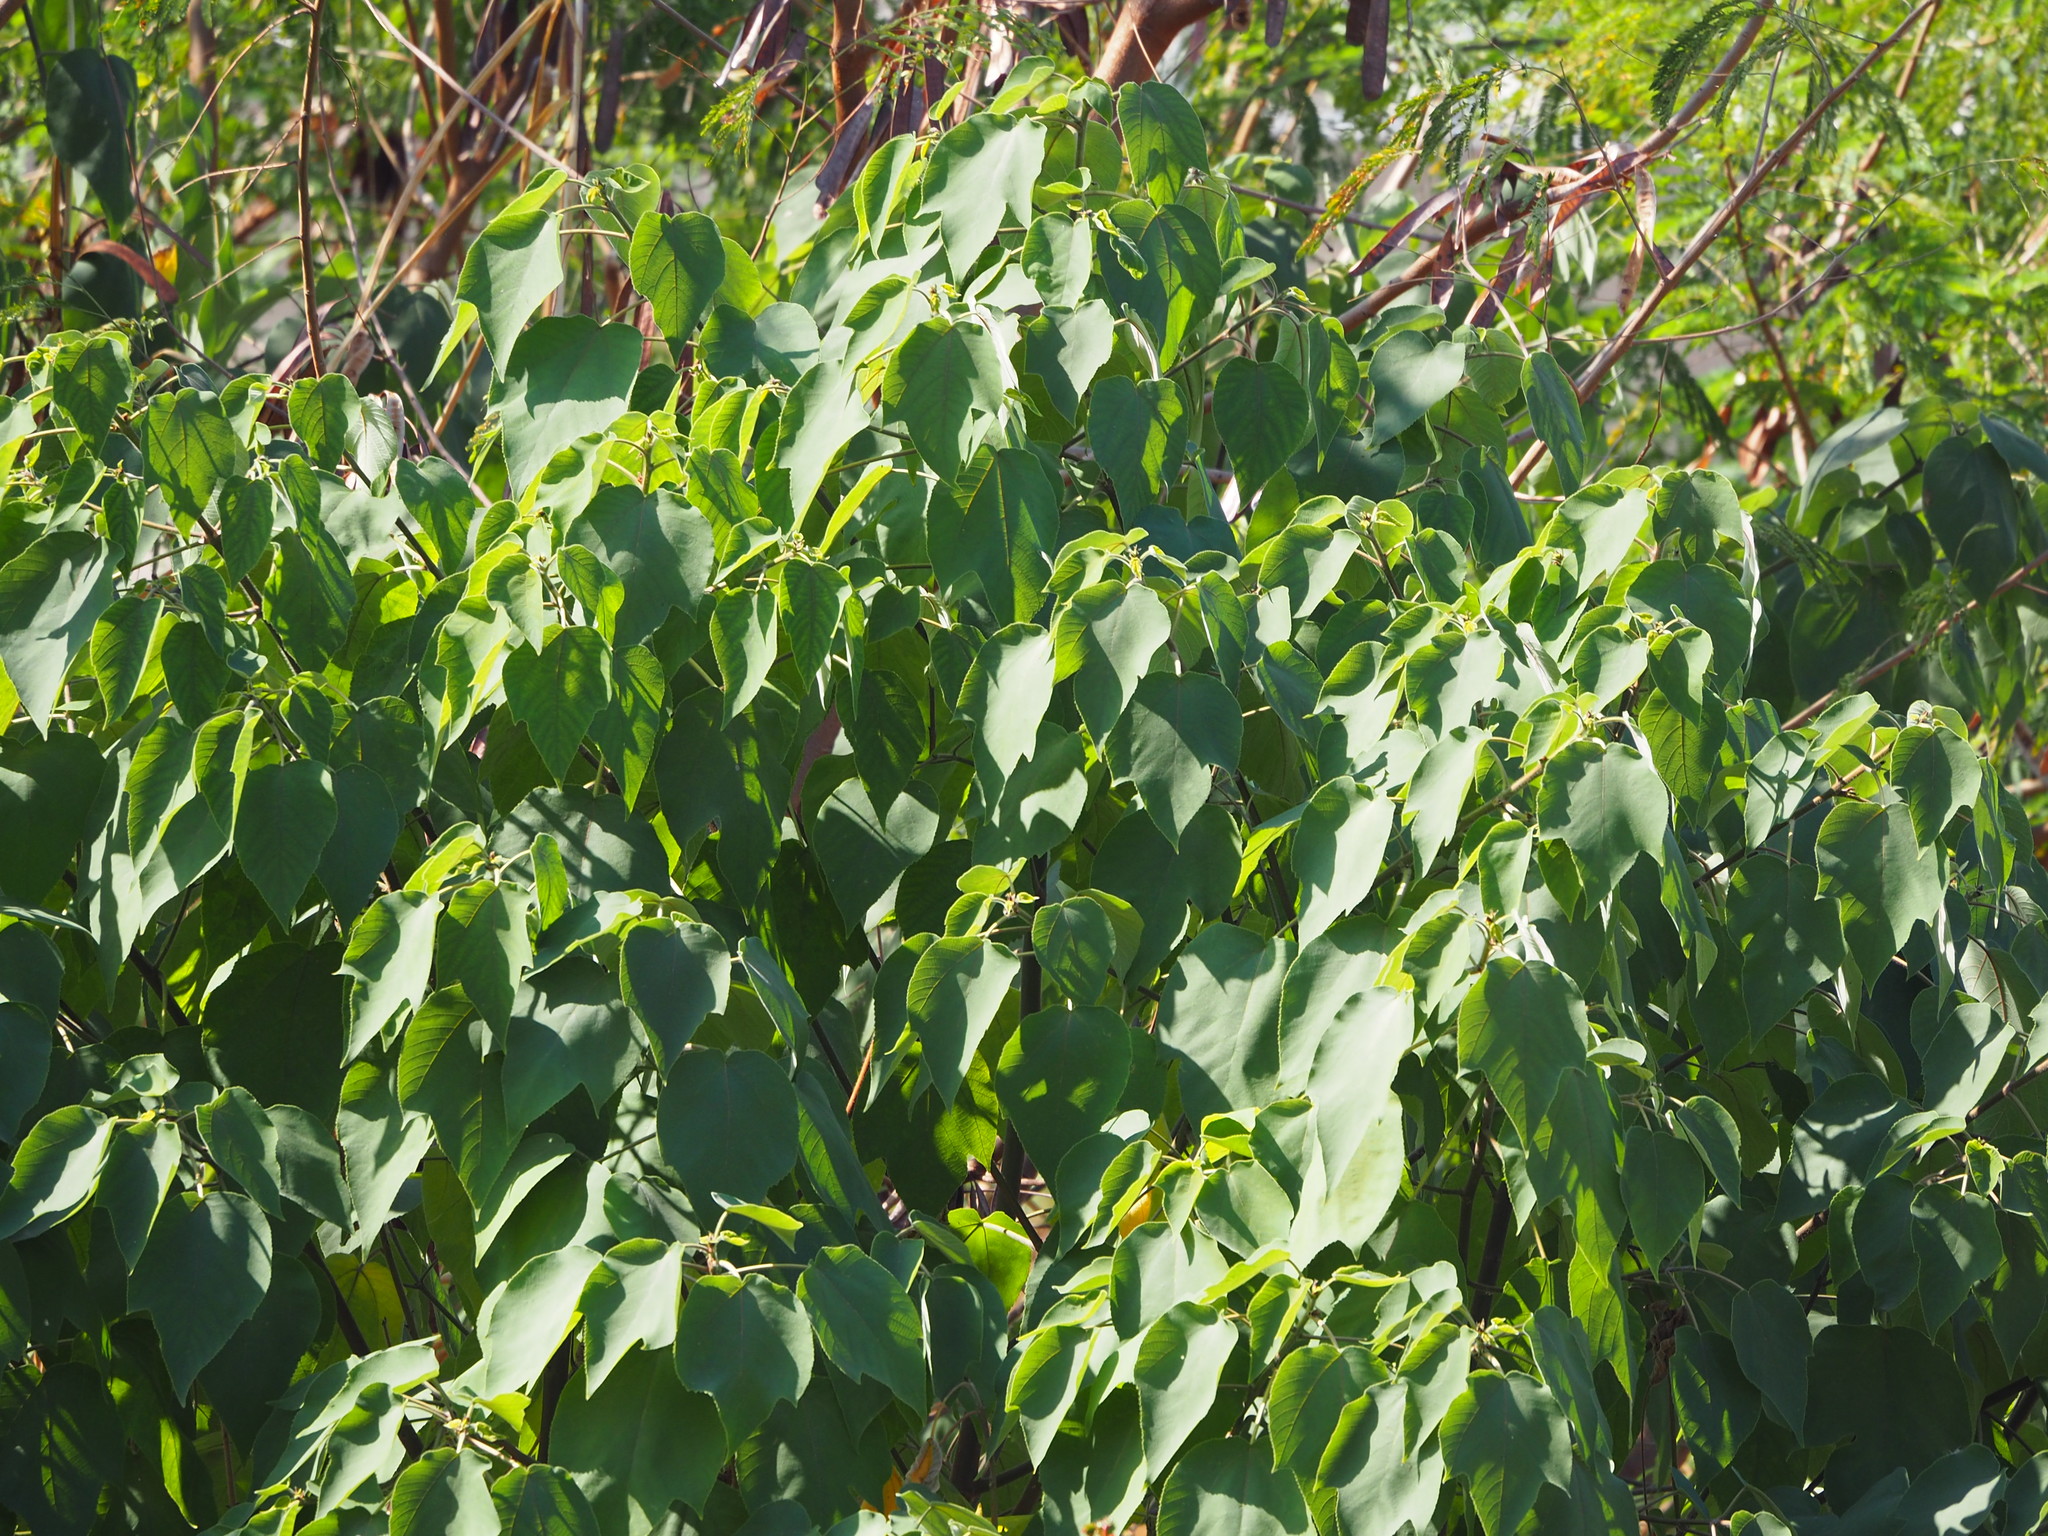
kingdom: Plantae
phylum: Tracheophyta
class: Magnoliopsida
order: Rosales
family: Moraceae
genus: Broussonetia
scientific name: Broussonetia papyrifera
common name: Paper mulberry
